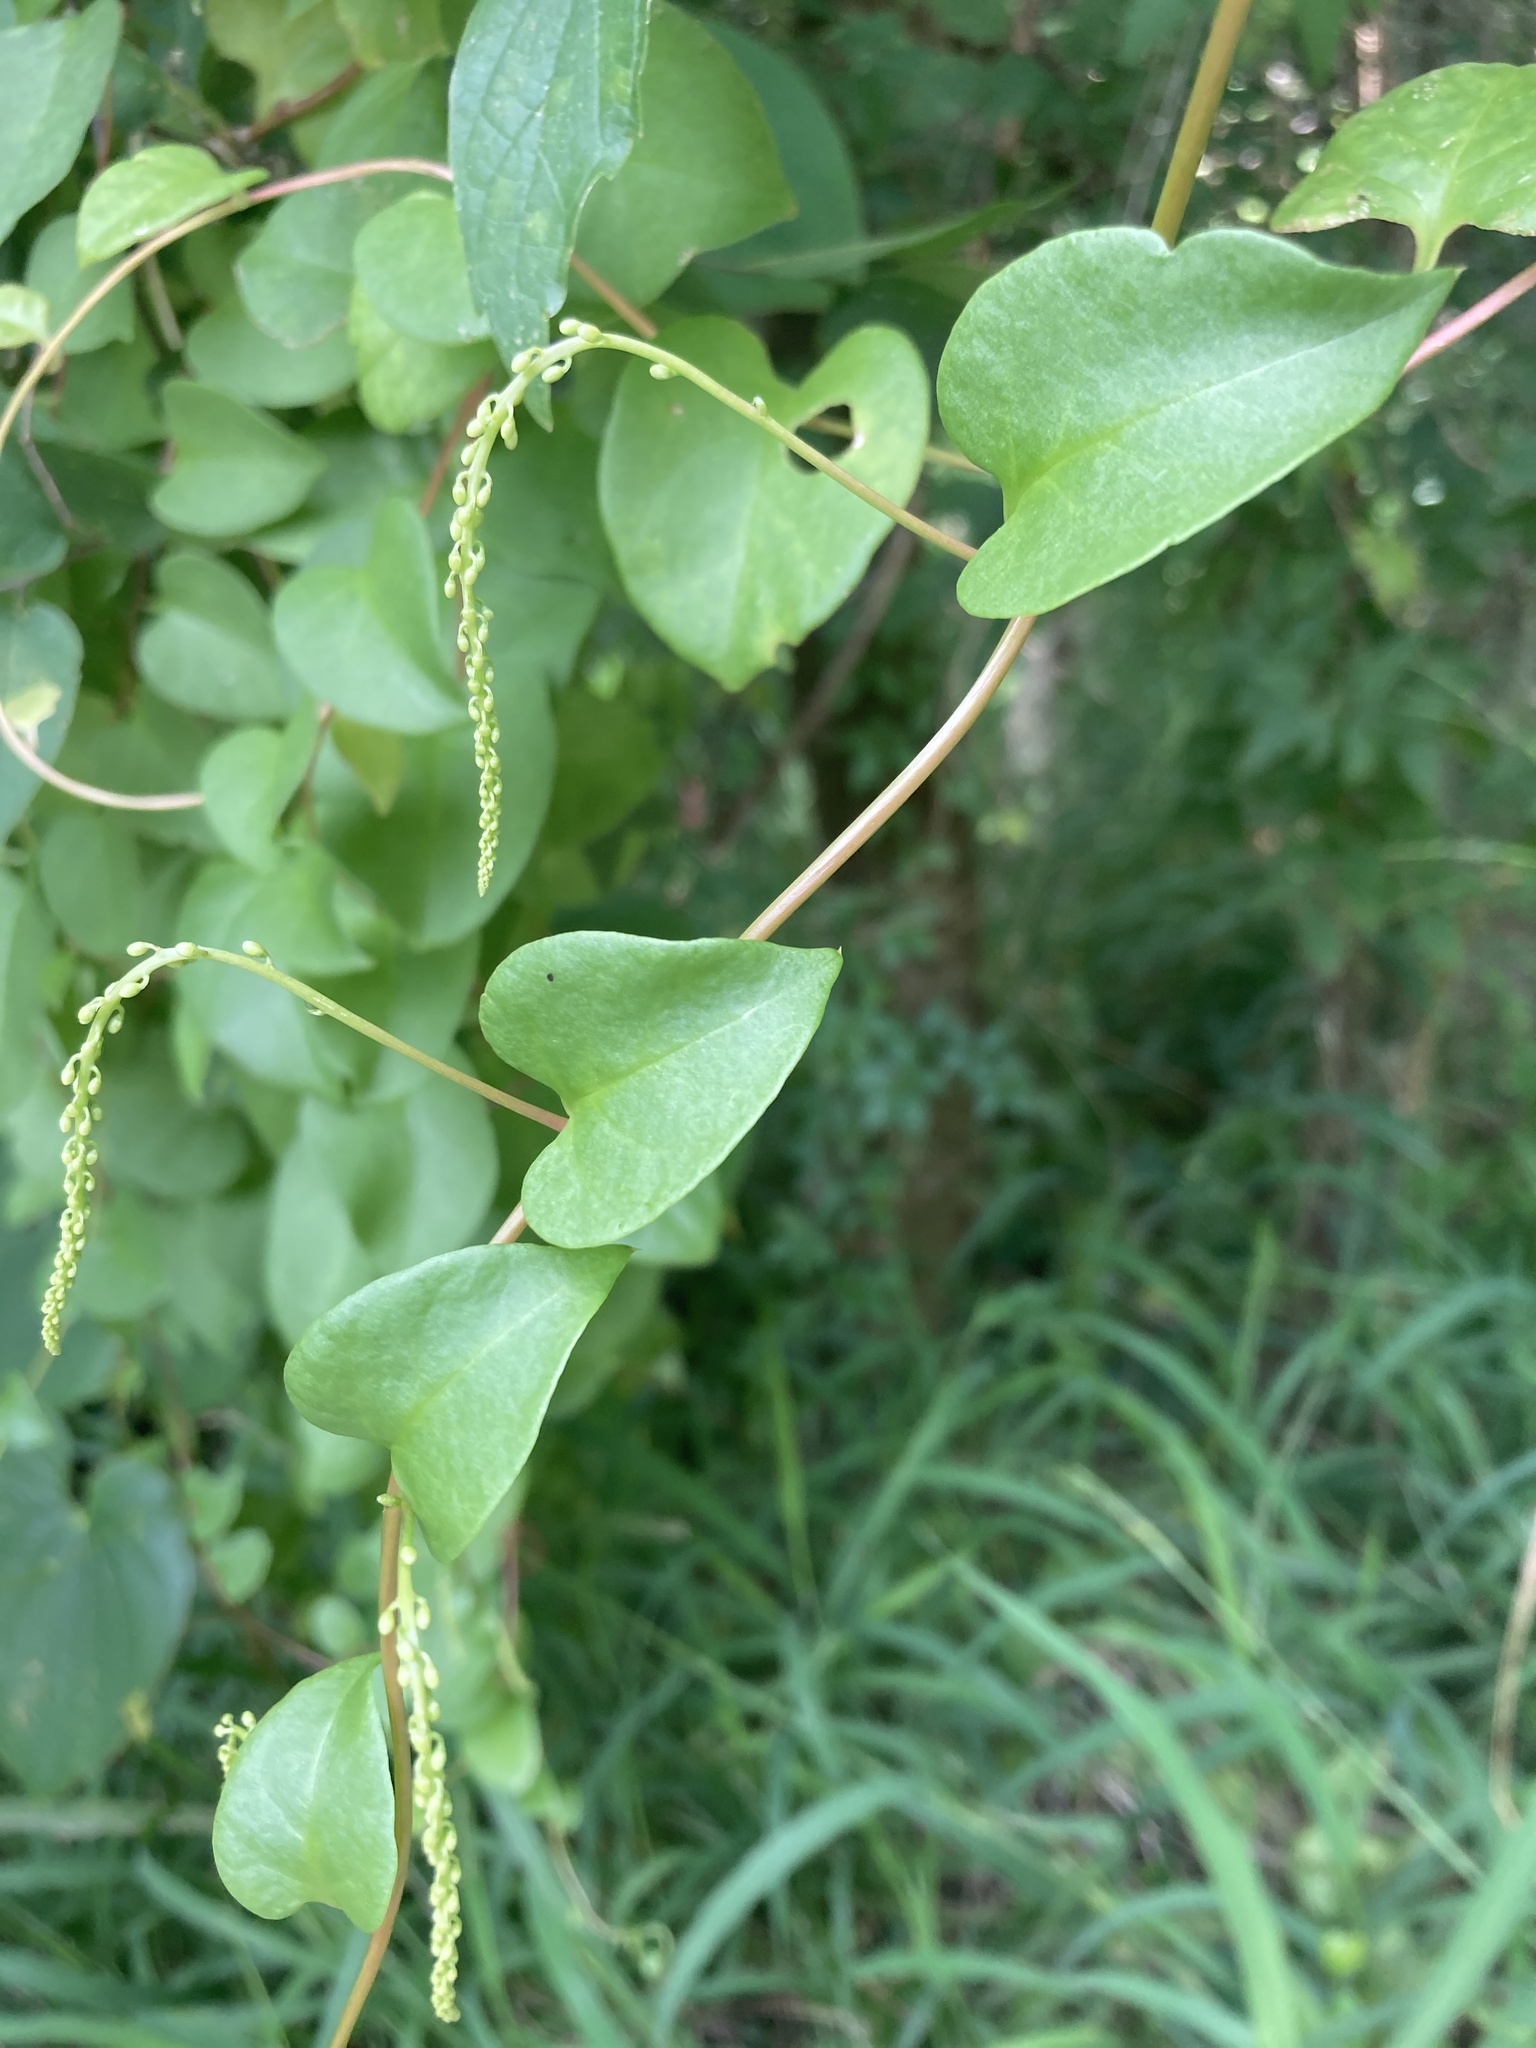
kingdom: Plantae
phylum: Tracheophyta
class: Magnoliopsida
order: Caryophyllales
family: Basellaceae
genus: Anredera
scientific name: Anredera cordifolia
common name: Heartleaf madeiravine
